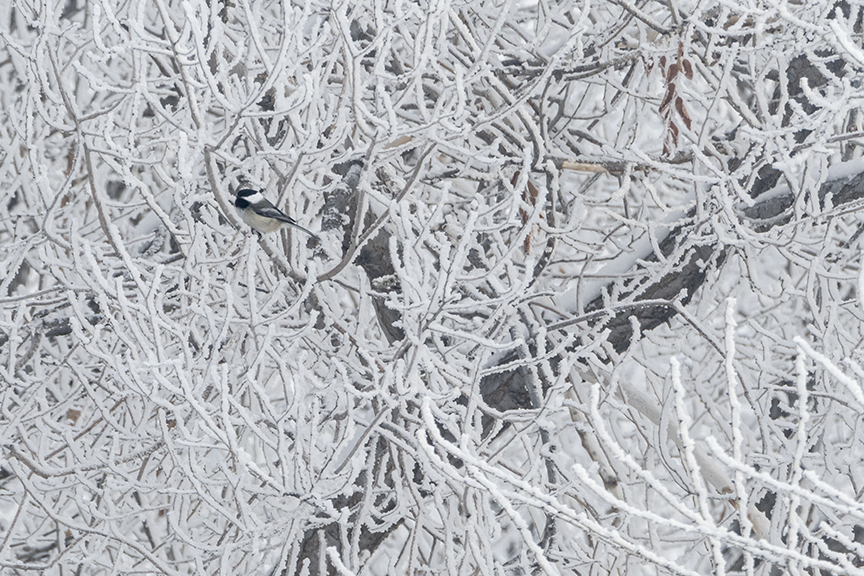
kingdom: Animalia
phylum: Chordata
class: Aves
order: Passeriformes
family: Paridae
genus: Poecile
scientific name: Poecile atricapillus
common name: Black-capped chickadee
